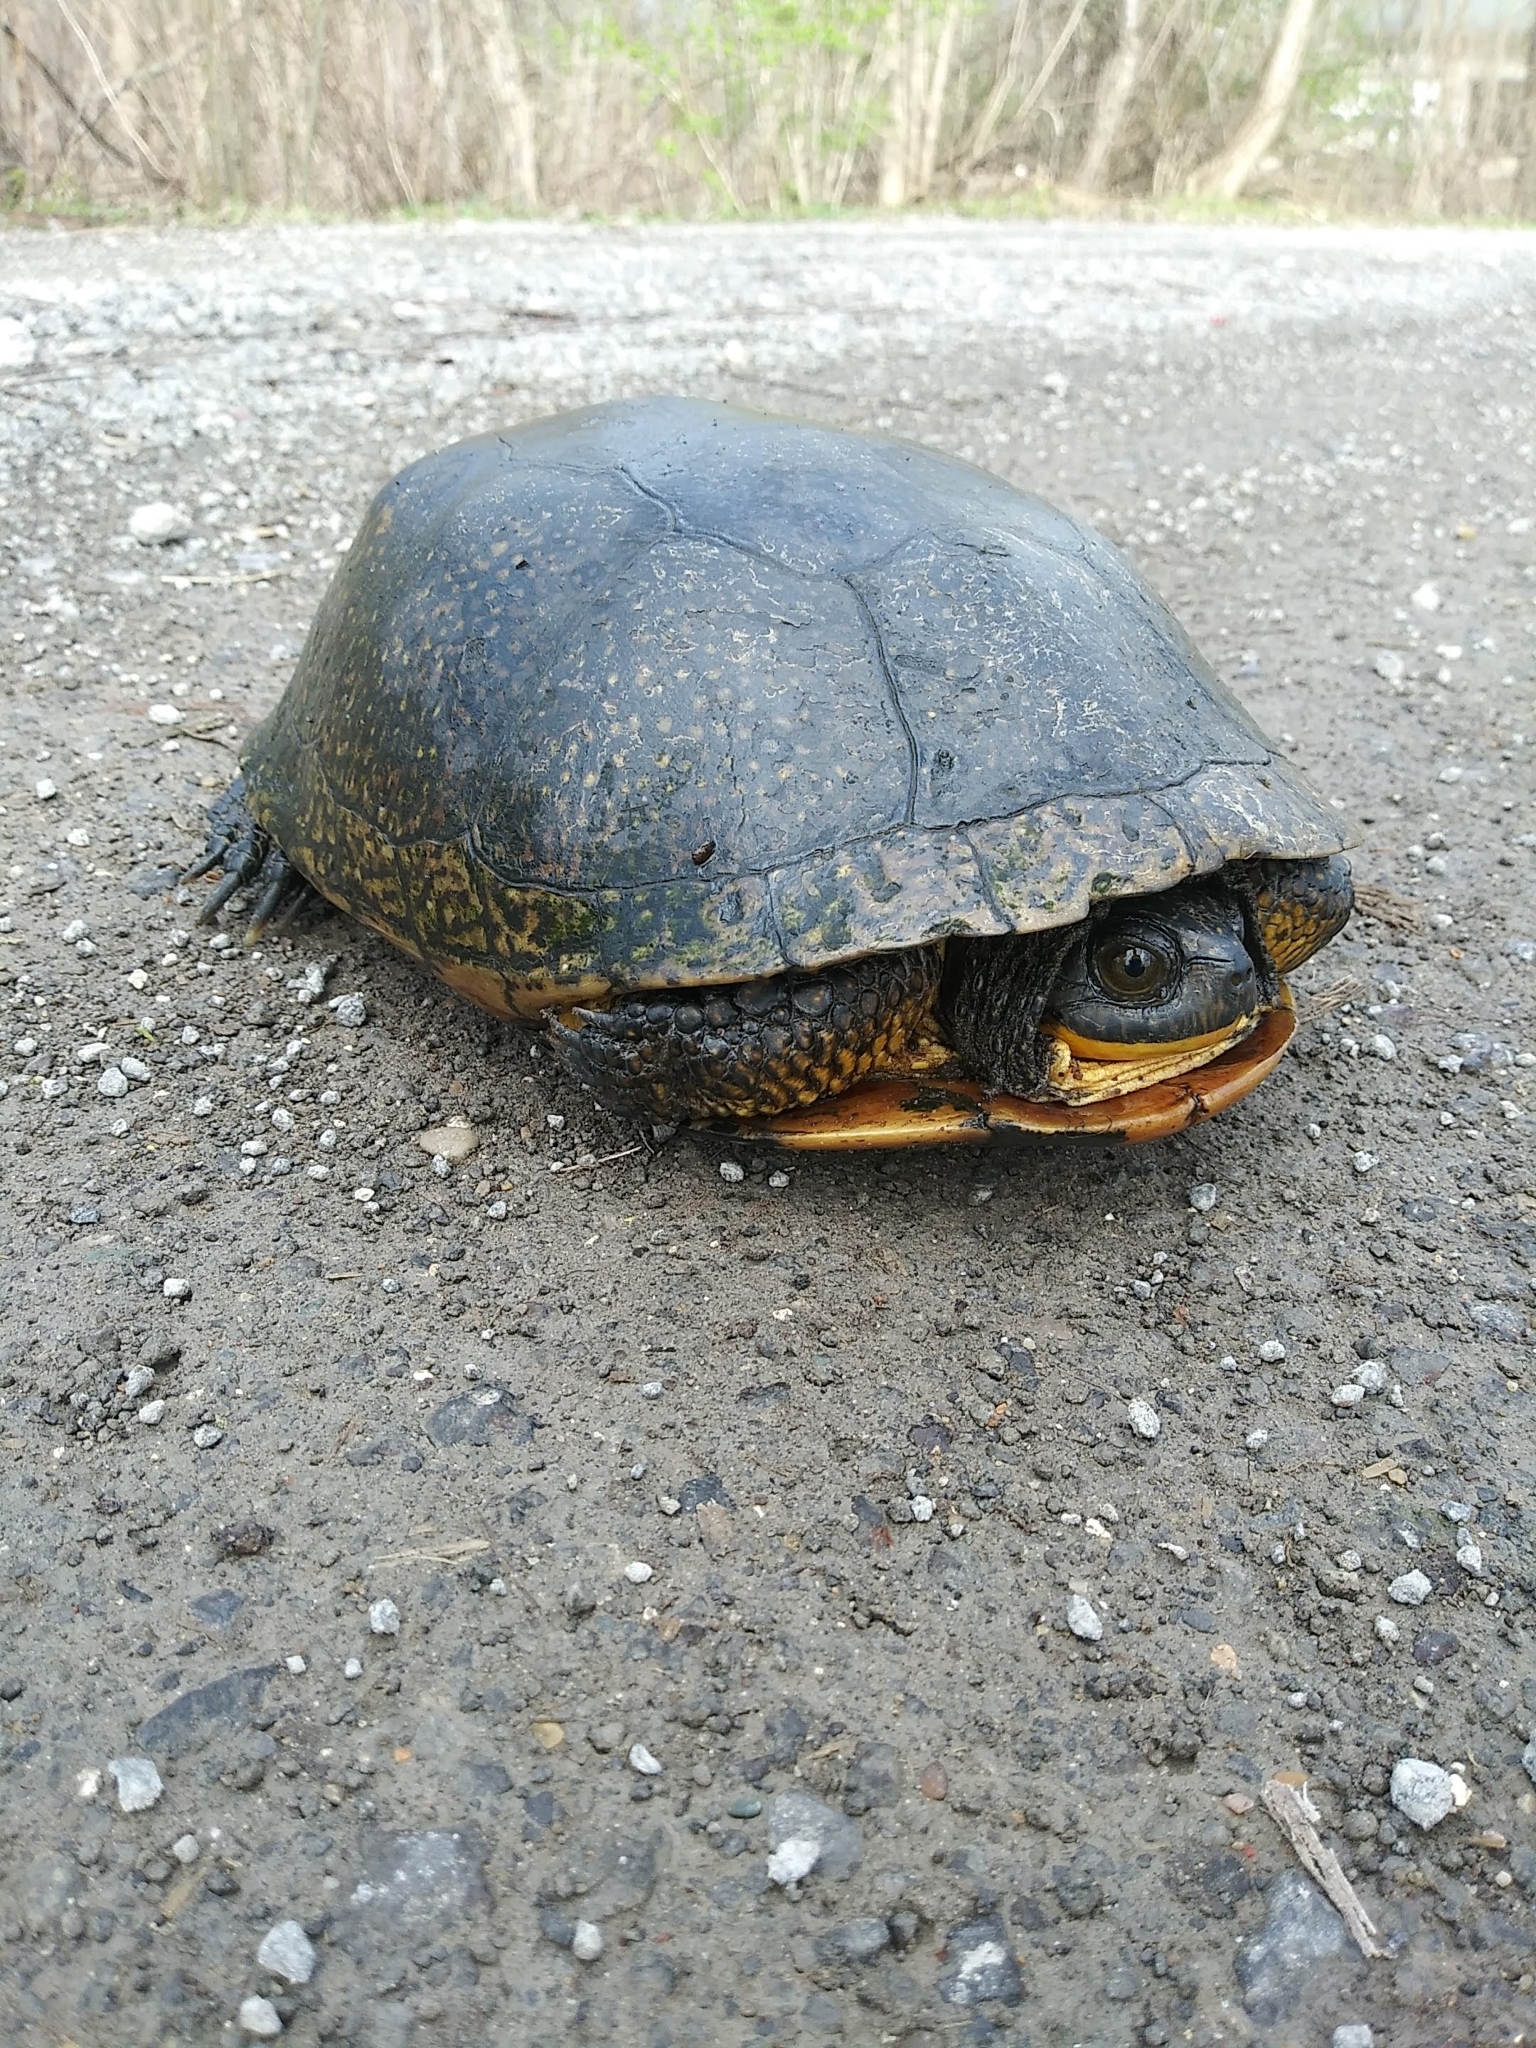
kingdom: Animalia
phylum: Chordata
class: Testudines
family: Emydidae
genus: Emys
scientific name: Emys blandingii
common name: Blanding's turtle
